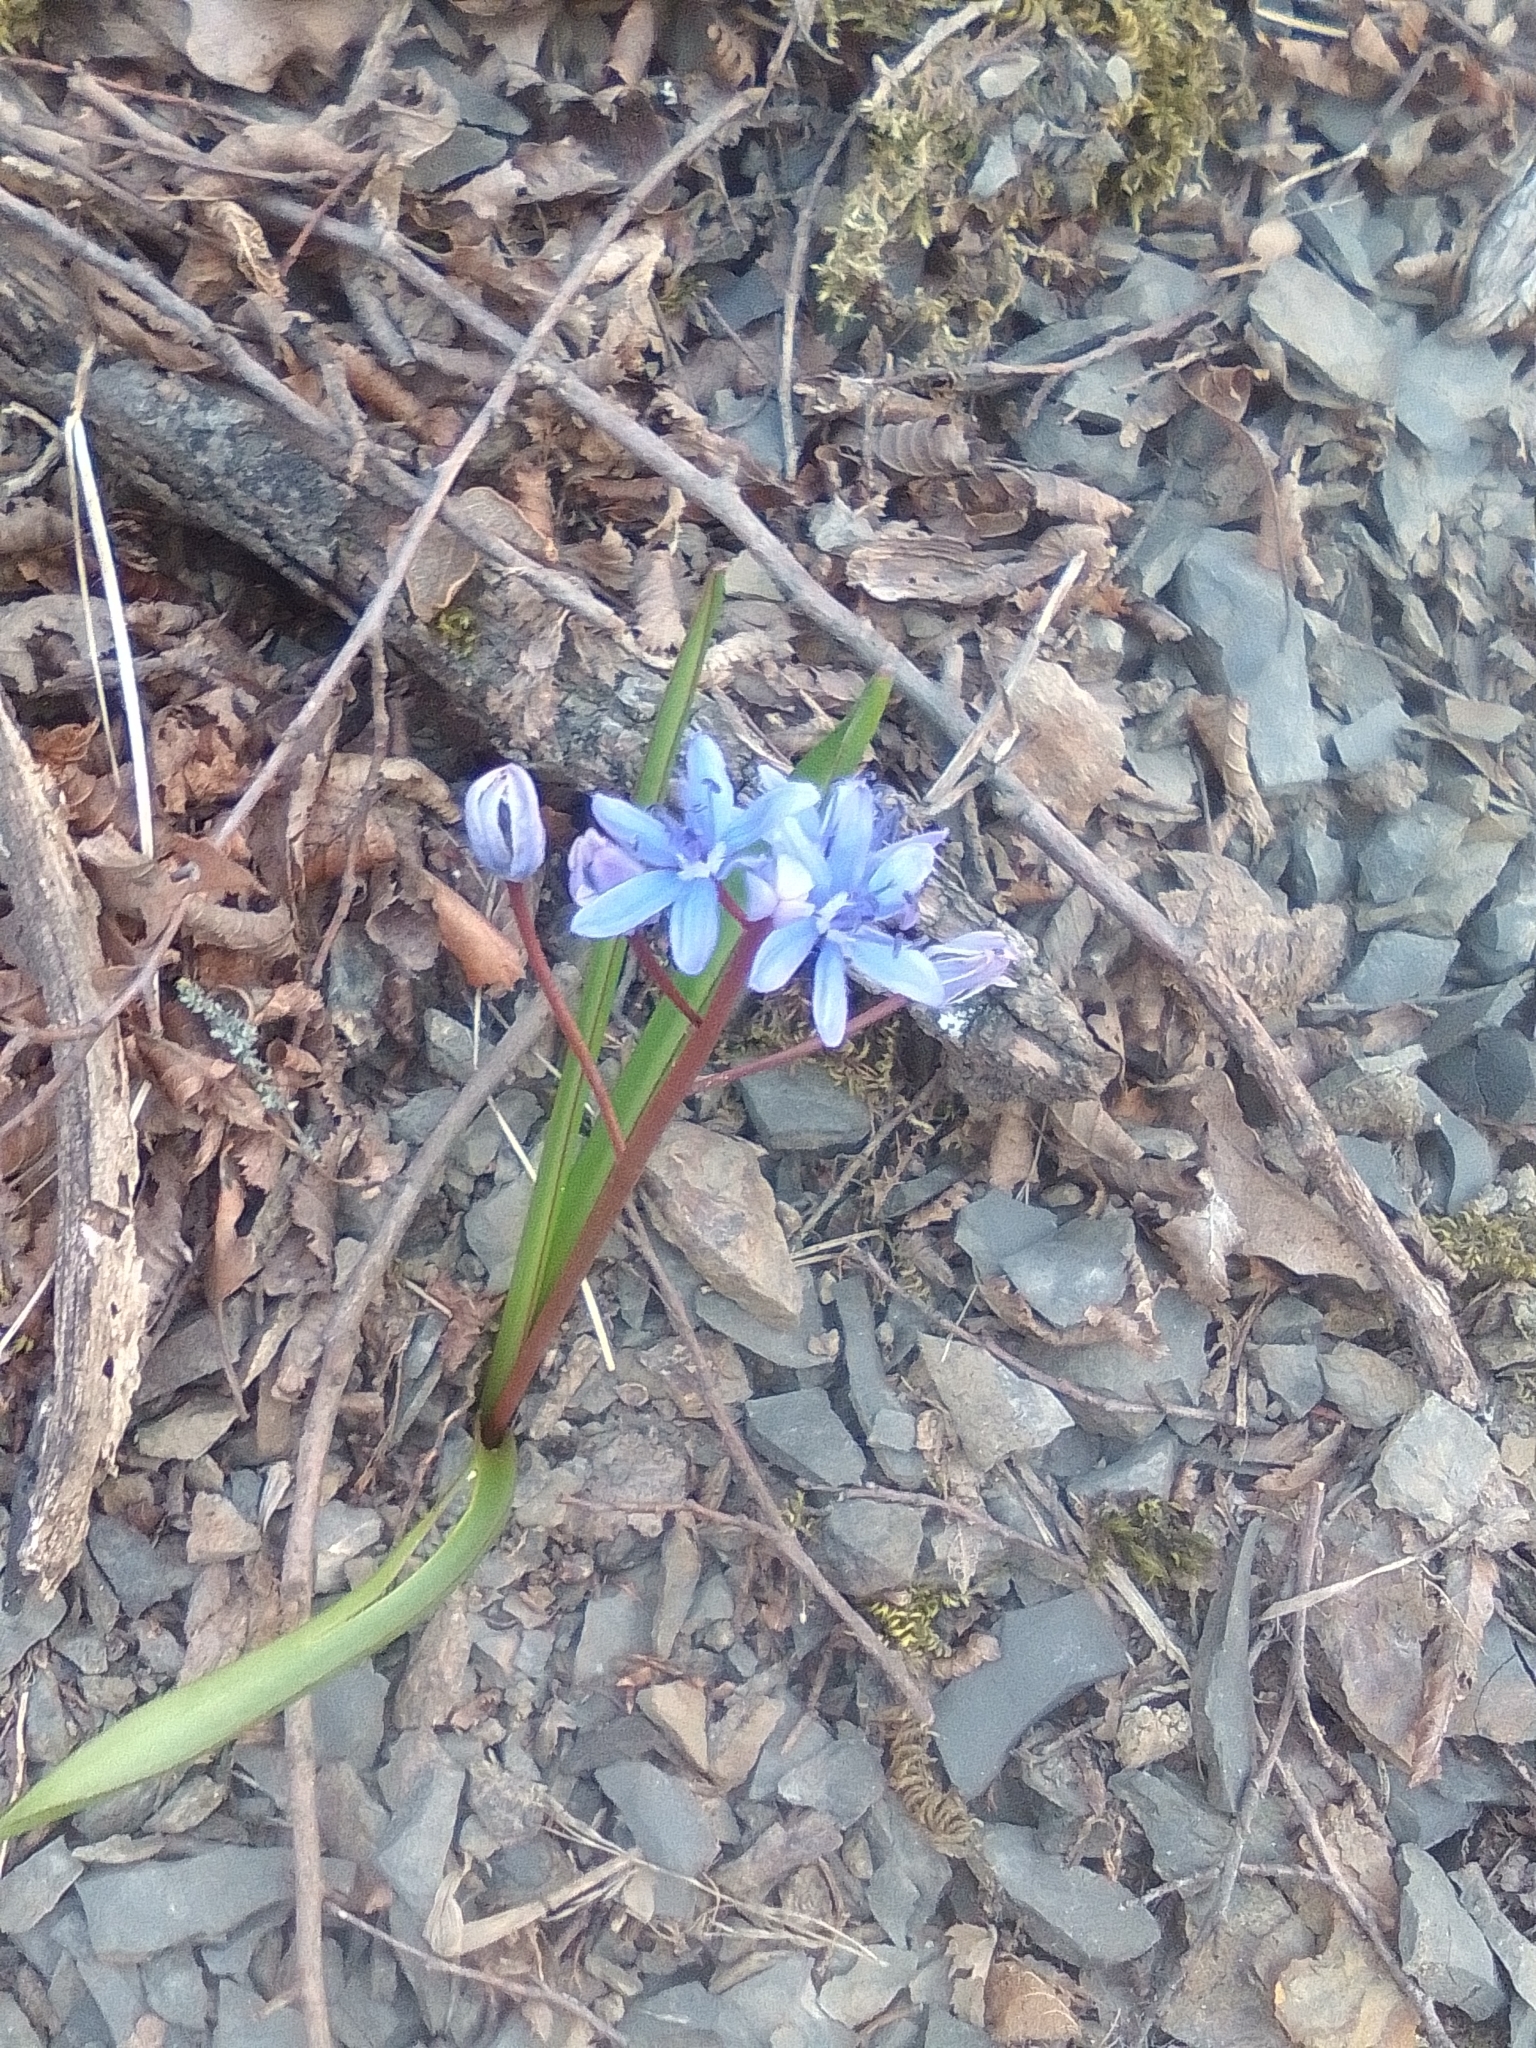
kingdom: Plantae
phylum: Tracheophyta
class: Liliopsida
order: Asparagales
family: Asparagaceae
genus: Scilla
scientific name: Scilla bifolia
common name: Alpine squill
